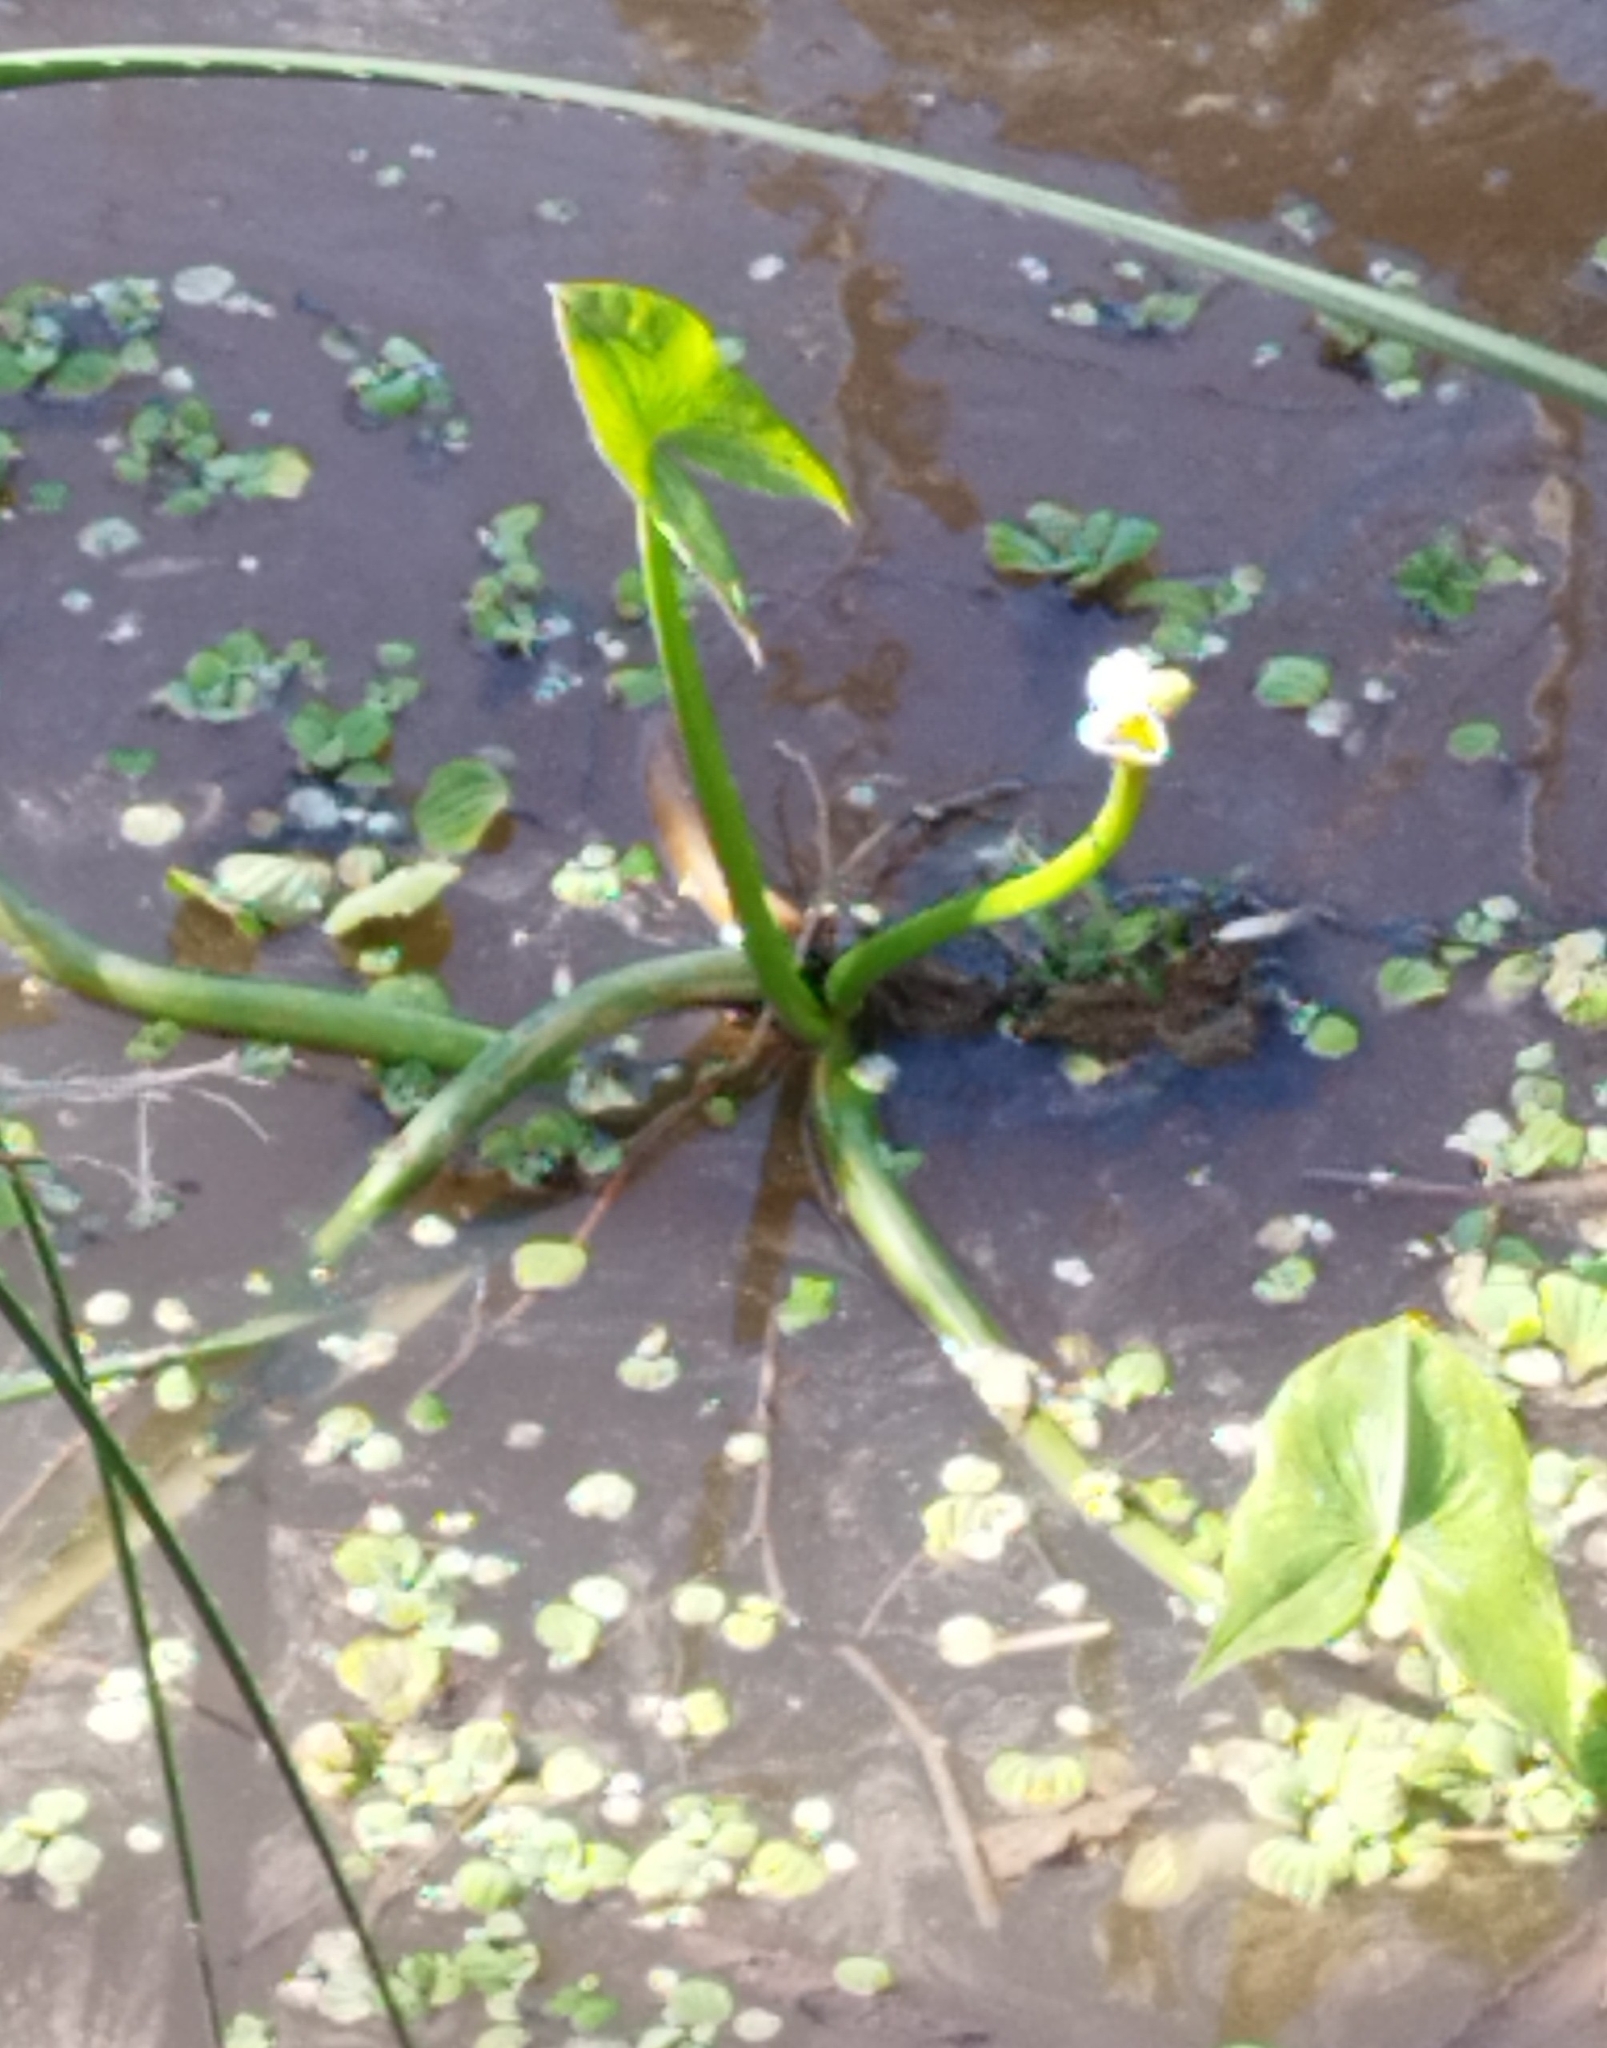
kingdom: Plantae
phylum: Tracheophyta
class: Liliopsida
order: Alismatales
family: Alismataceae
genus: Sagittaria
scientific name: Sagittaria montevidensis
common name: Giant arrowhead
